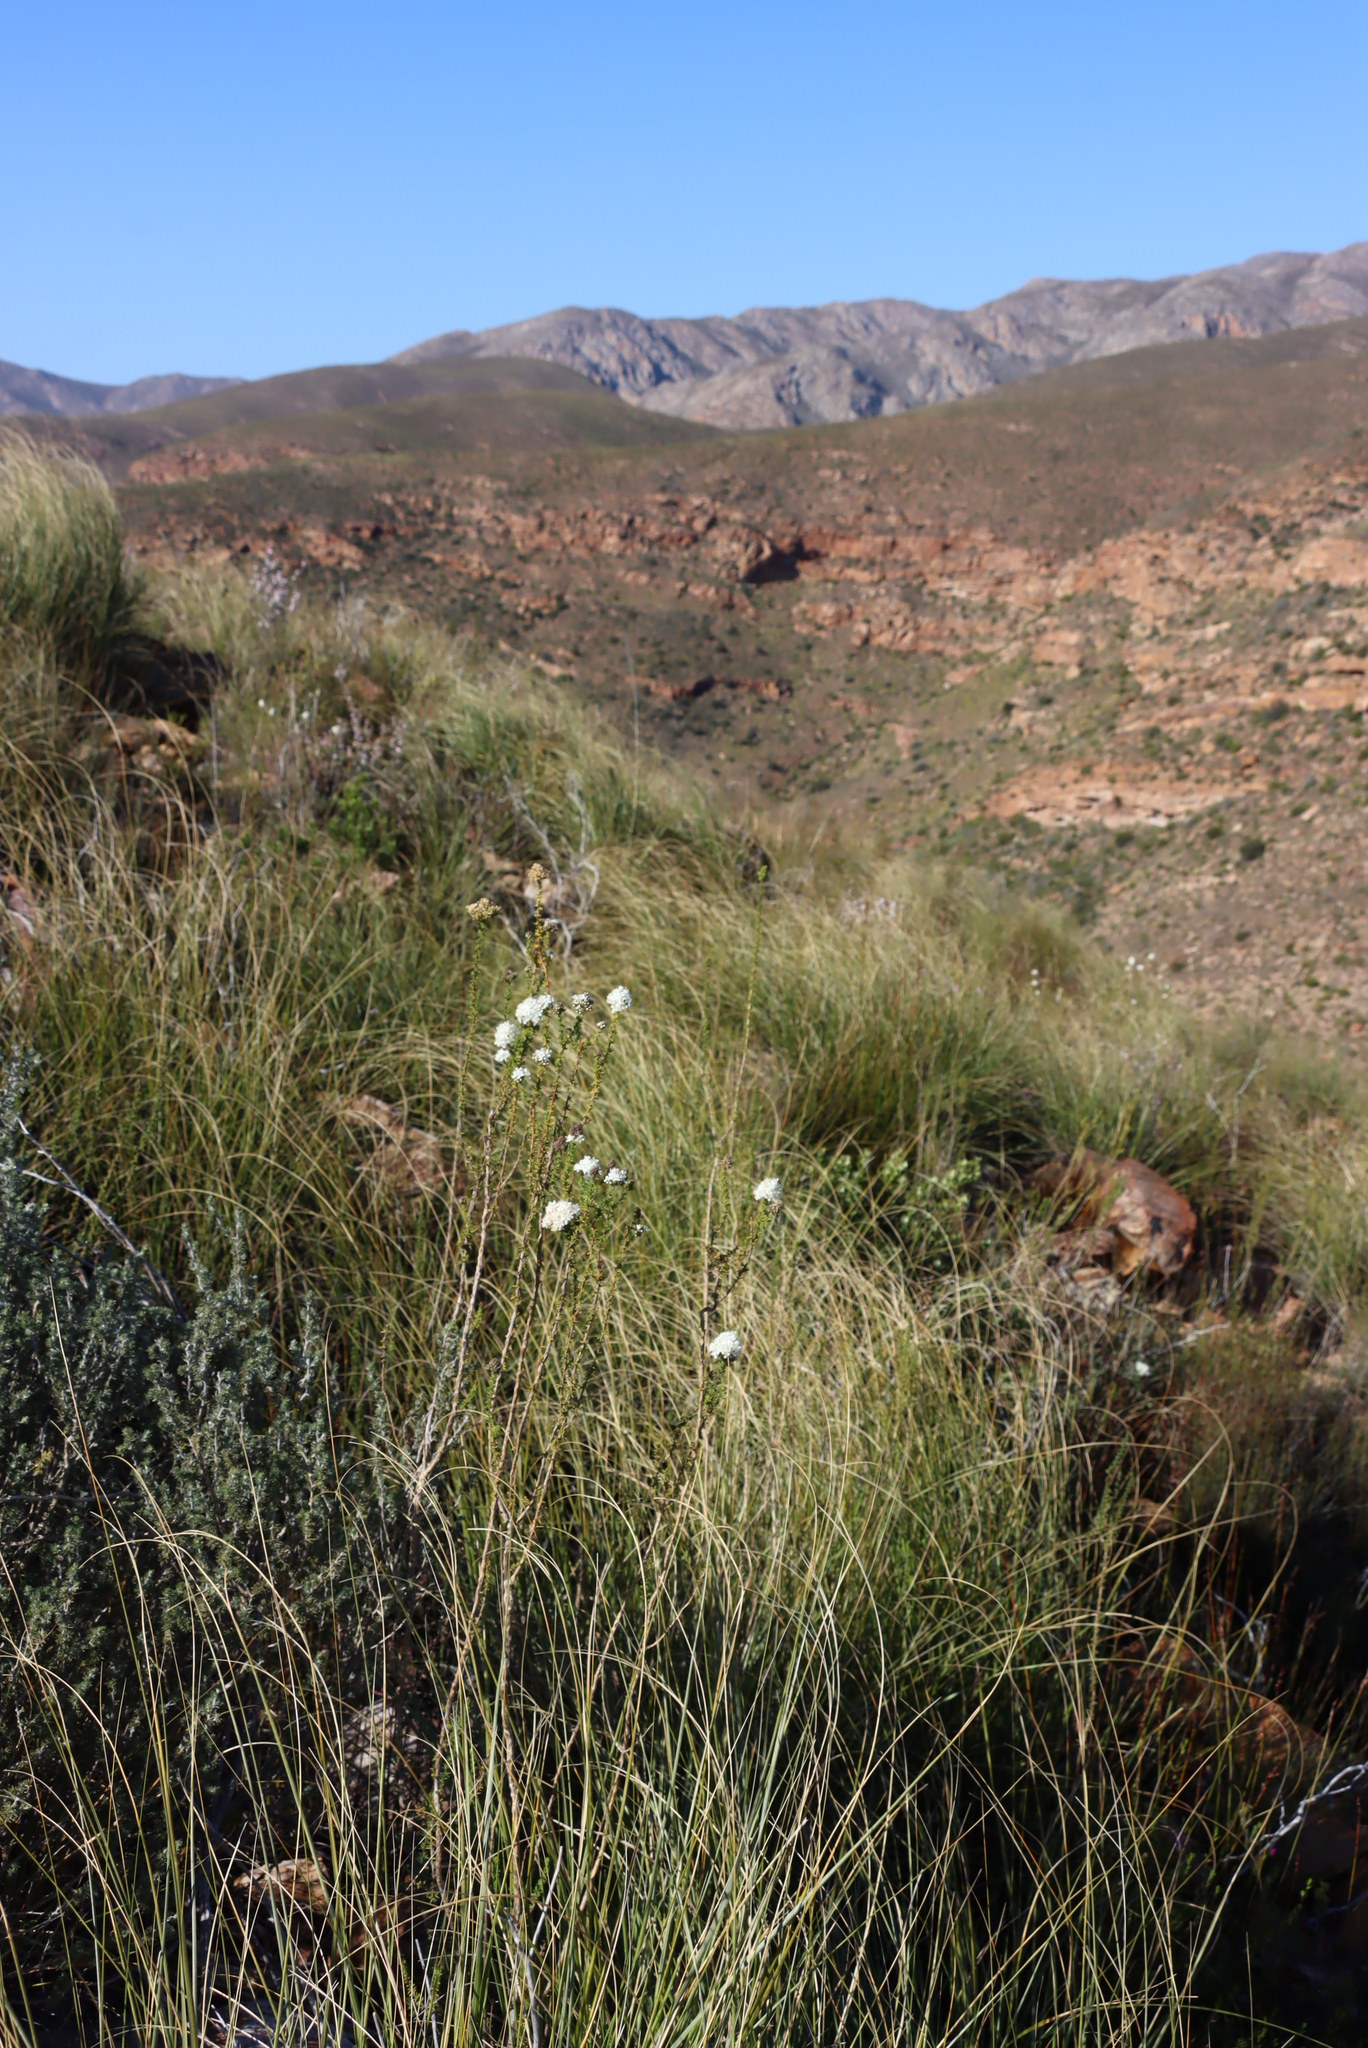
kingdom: Plantae
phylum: Tracheophyta
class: Magnoliopsida
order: Lamiales
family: Scrophulariaceae
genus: Selago
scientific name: Selago karooica
